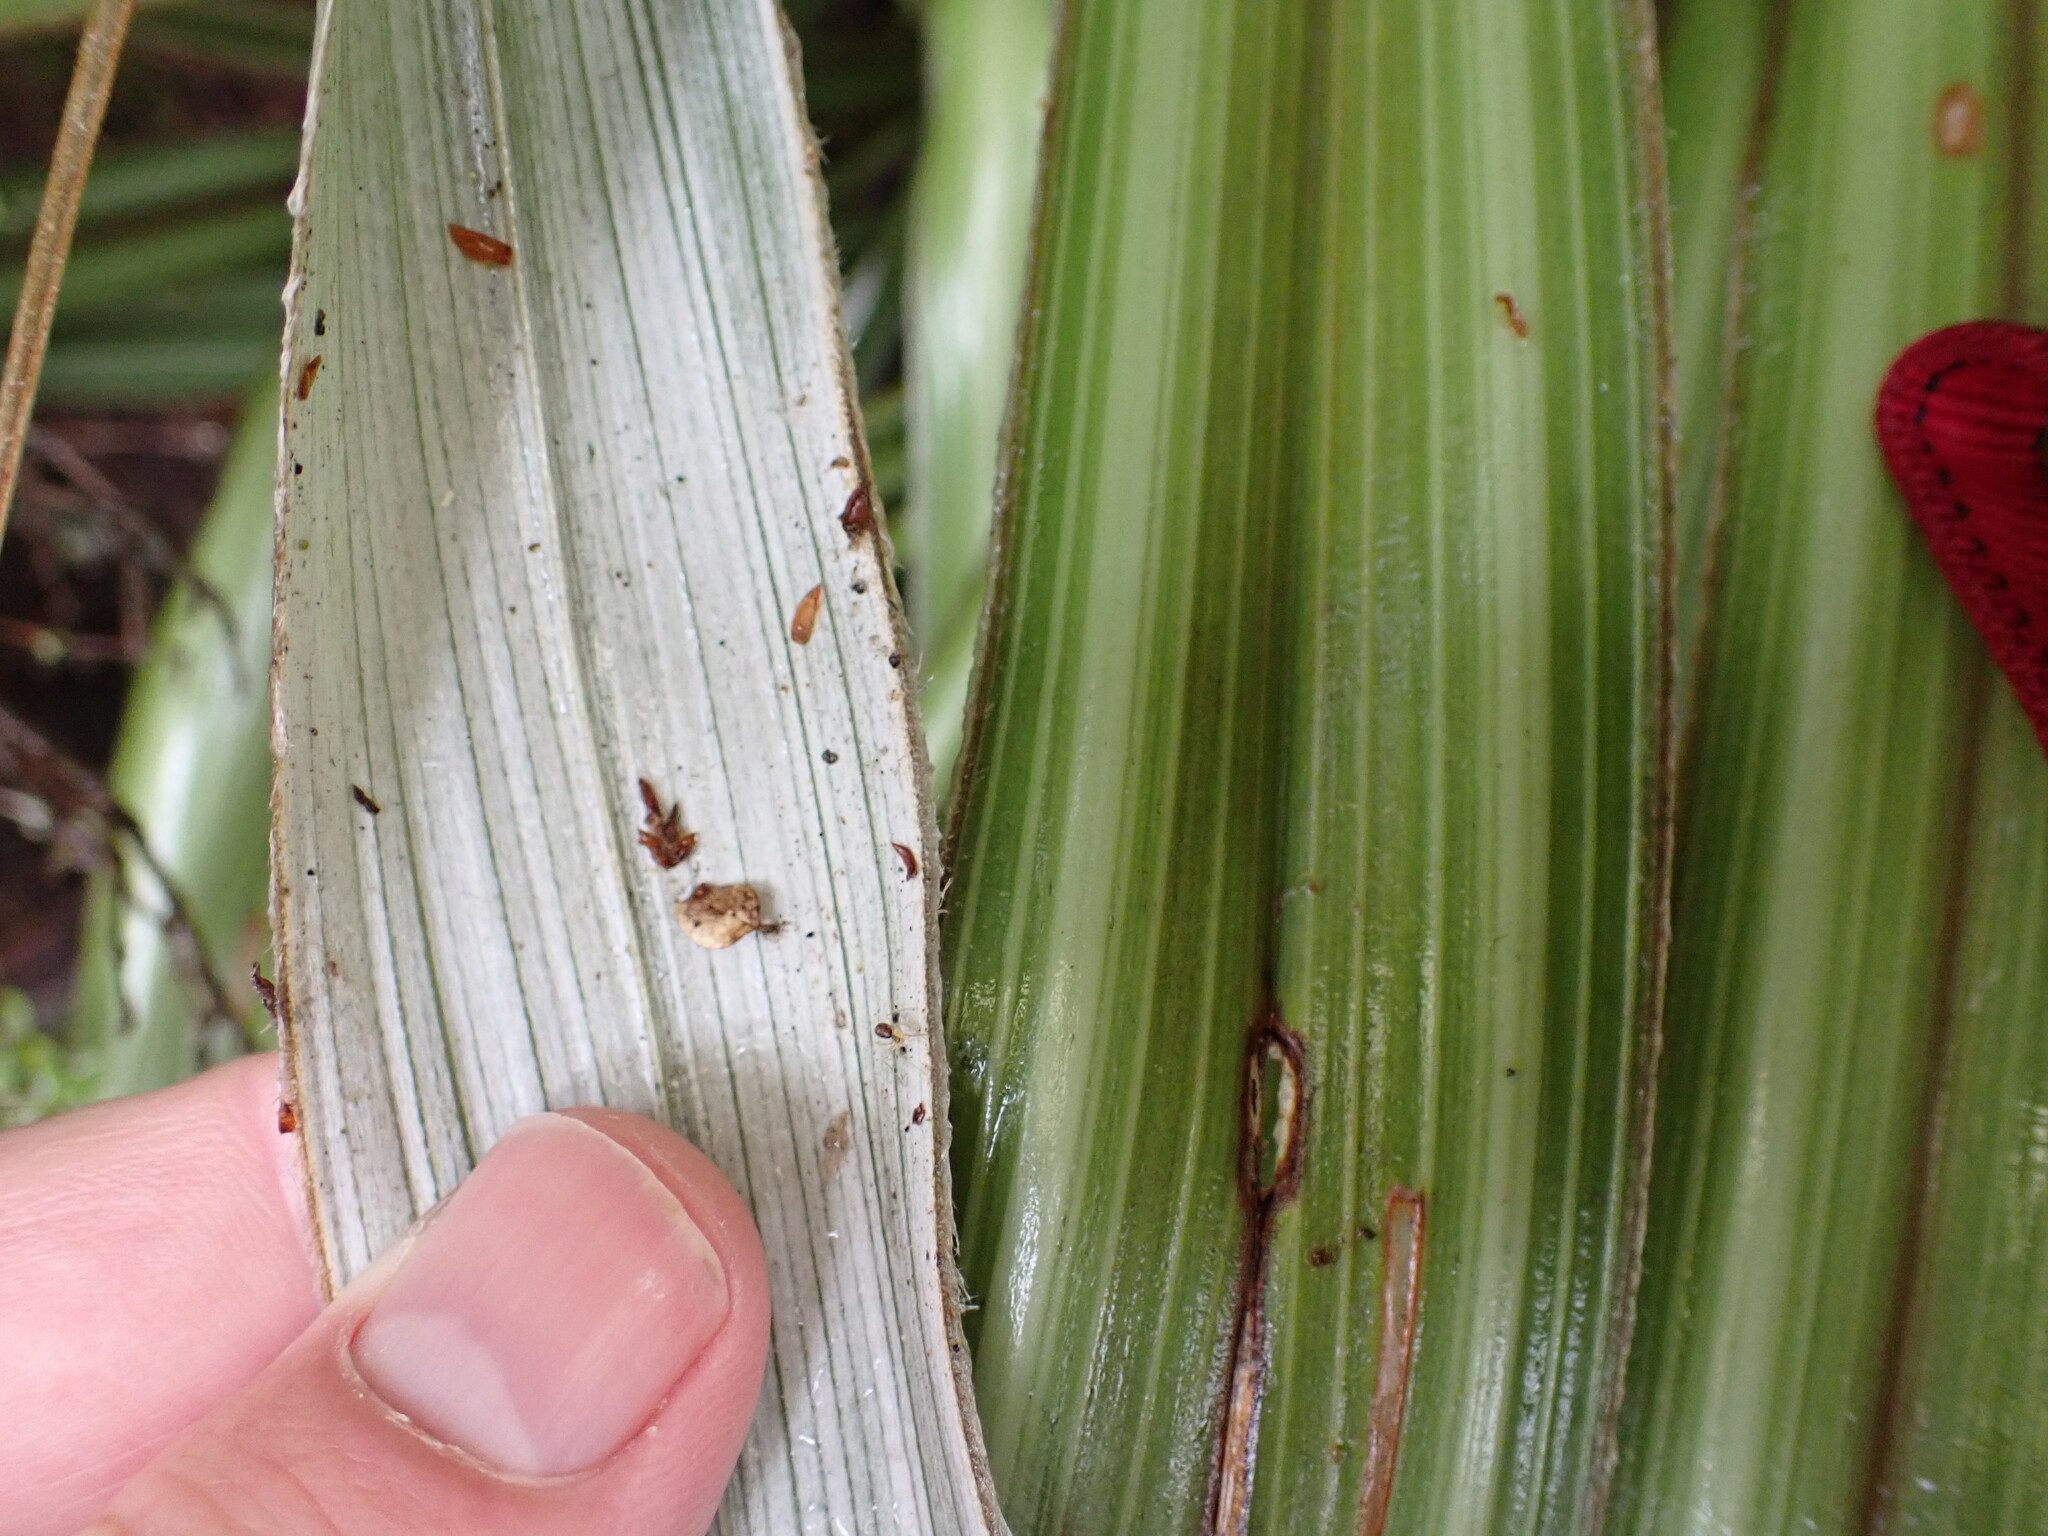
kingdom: Plantae
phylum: Tracheophyta
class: Liliopsida
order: Asparagales
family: Asteliaceae
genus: Astelia
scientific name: Astelia nervosa
